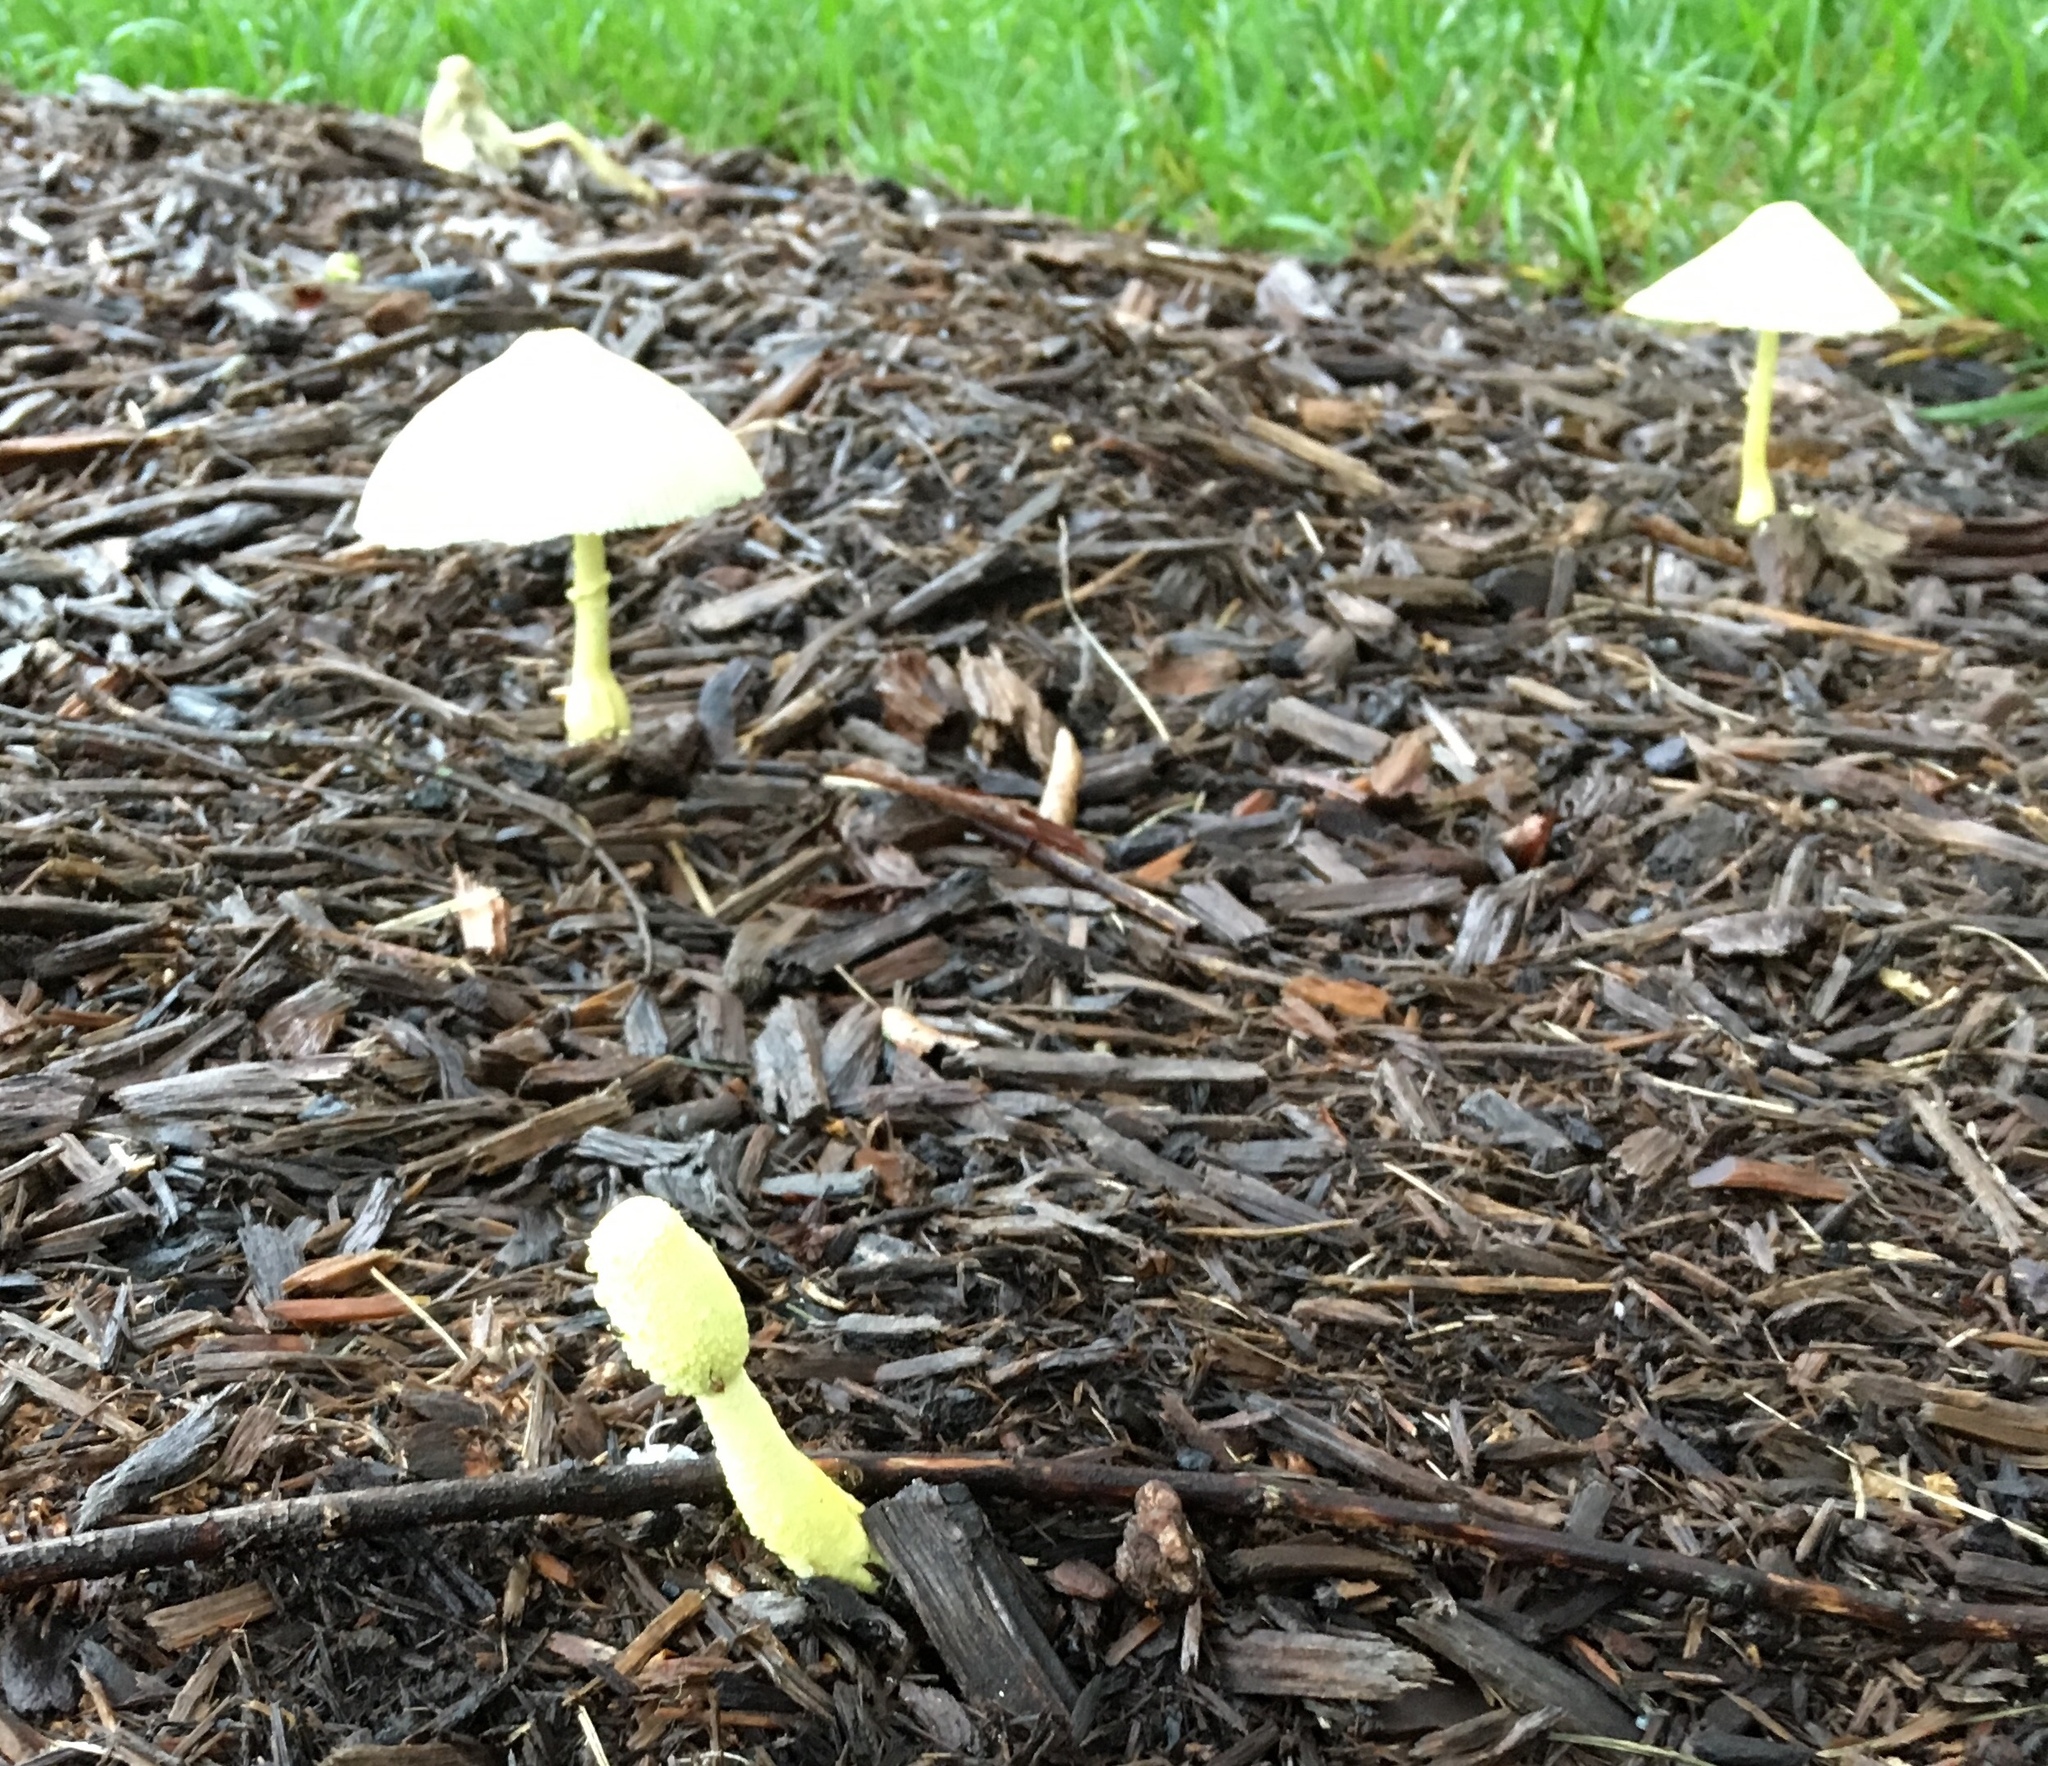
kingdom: Fungi
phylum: Basidiomycota
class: Agaricomycetes
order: Agaricales
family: Agaricaceae
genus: Leucocoprinus
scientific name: Leucocoprinus birnbaumii
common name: Plantpot dapperling
